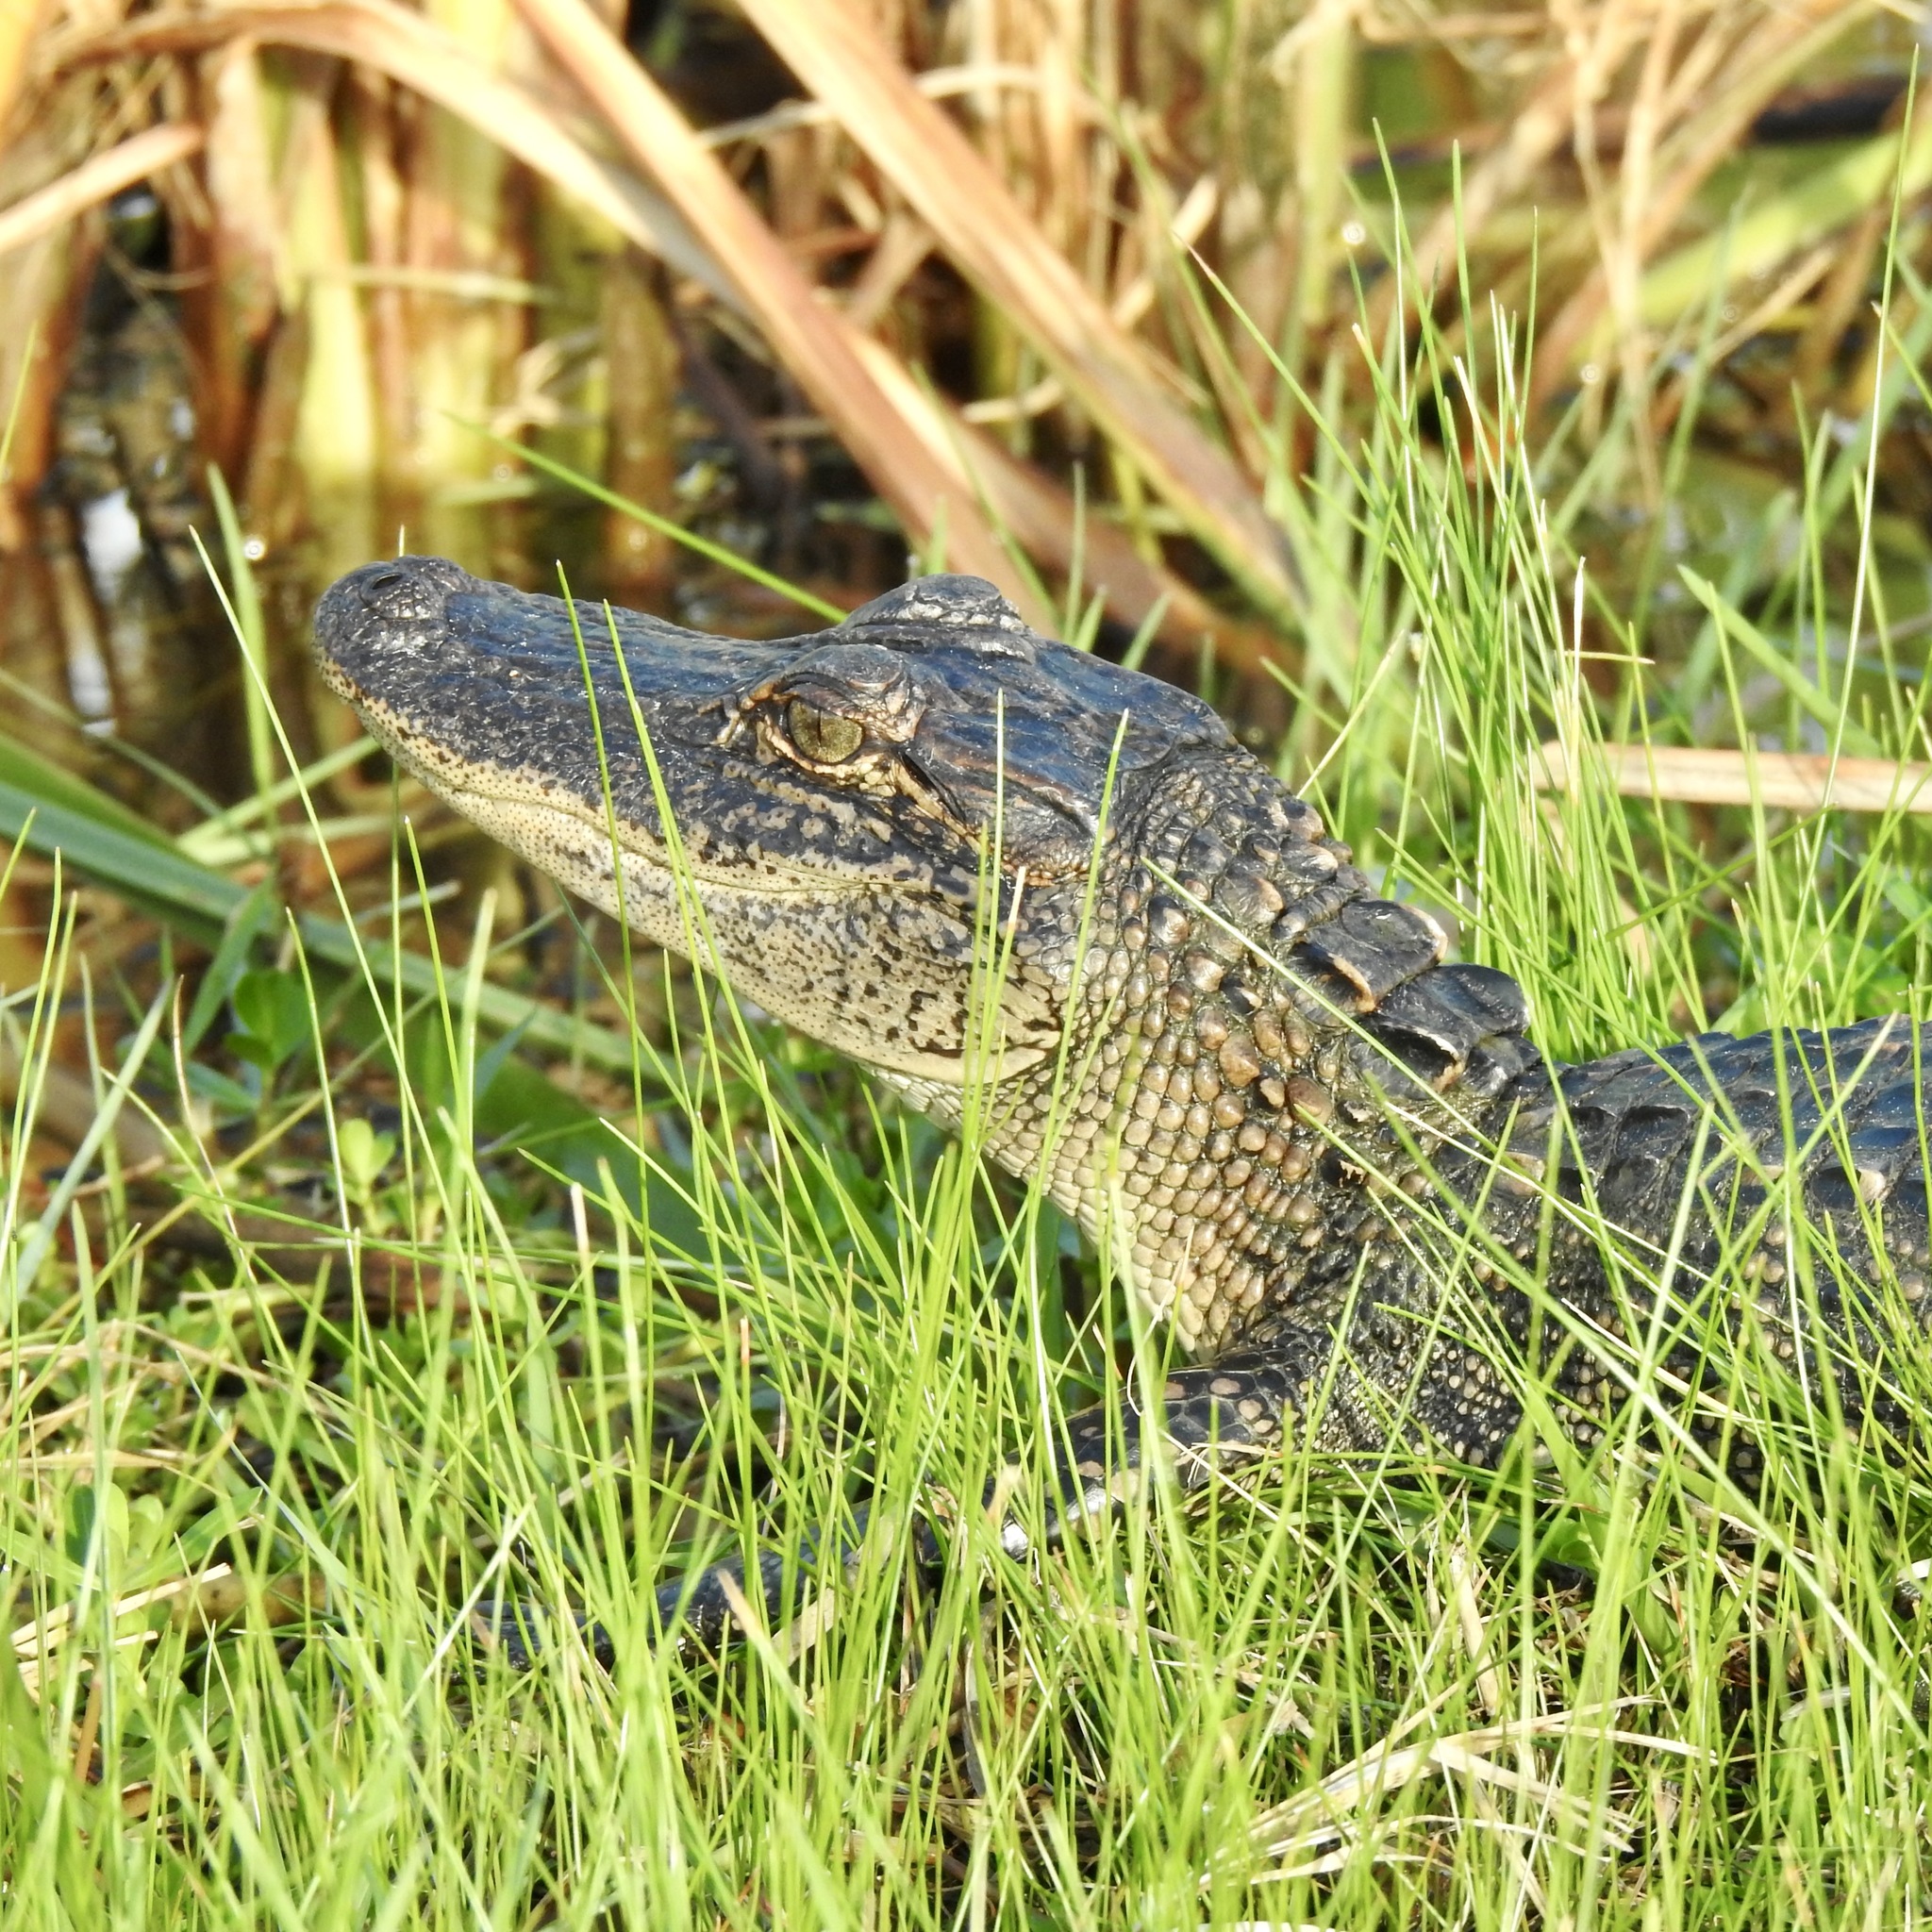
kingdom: Animalia
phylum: Chordata
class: Crocodylia
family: Alligatoridae
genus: Alligator
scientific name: Alligator mississippiensis
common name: American alligator
